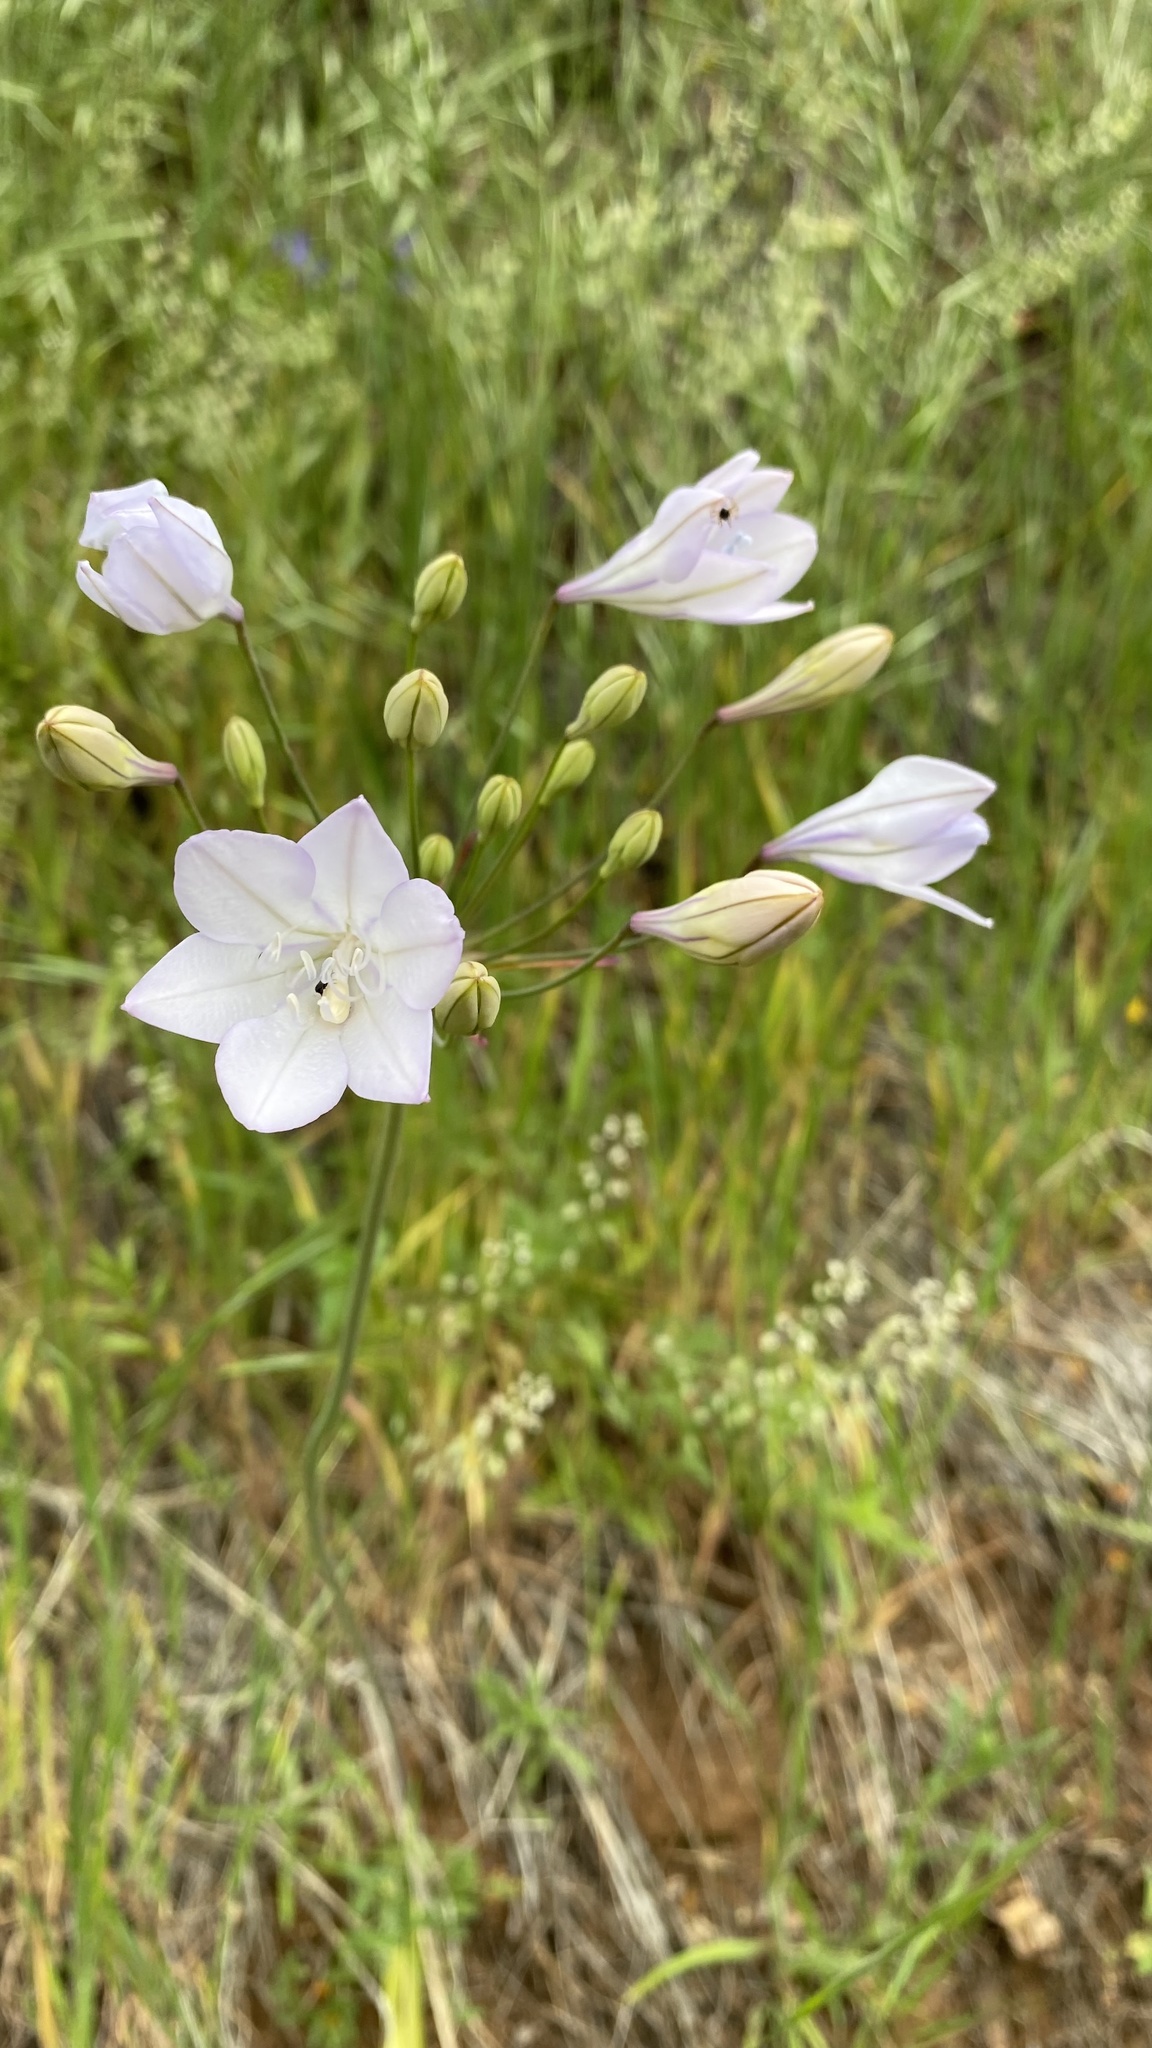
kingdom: Plantae
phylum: Tracheophyta
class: Liliopsida
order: Asparagales
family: Asparagaceae
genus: Triteleia
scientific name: Triteleia laxa
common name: Triplet-lily
